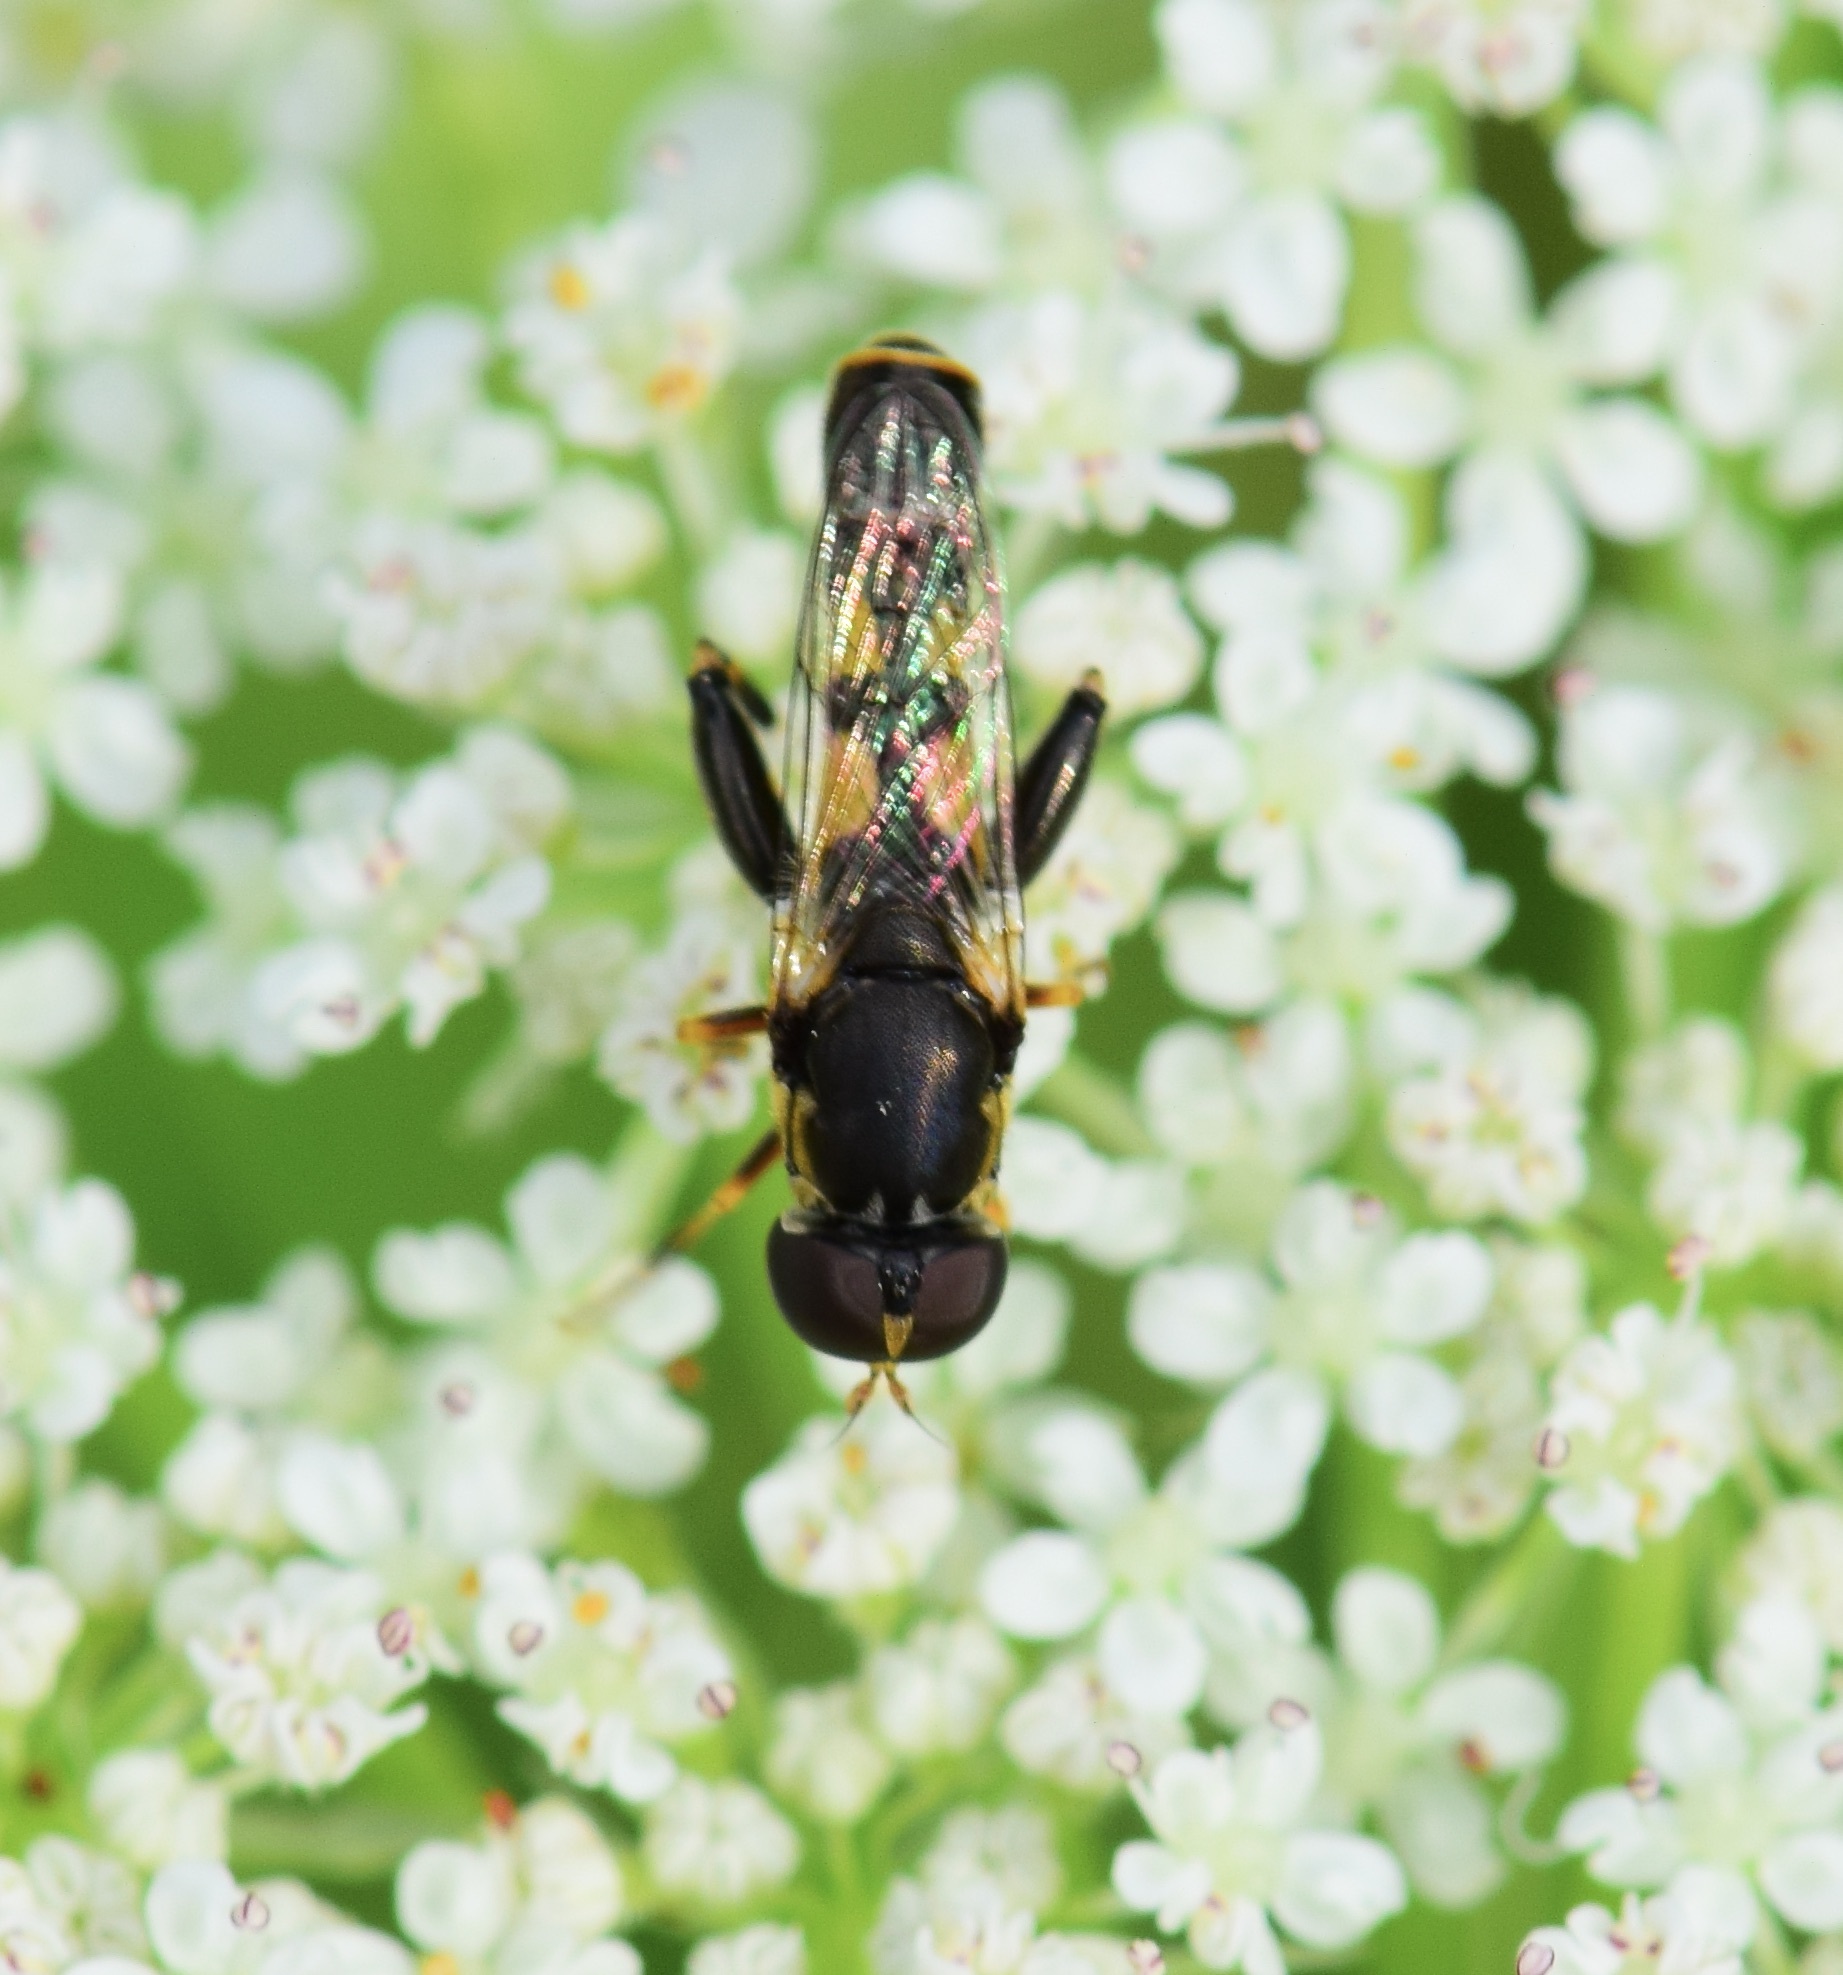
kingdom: Animalia
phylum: Arthropoda
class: Insecta
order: Diptera
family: Syrphidae
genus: Syritta
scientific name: Syritta pipiens
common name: Hover fly
